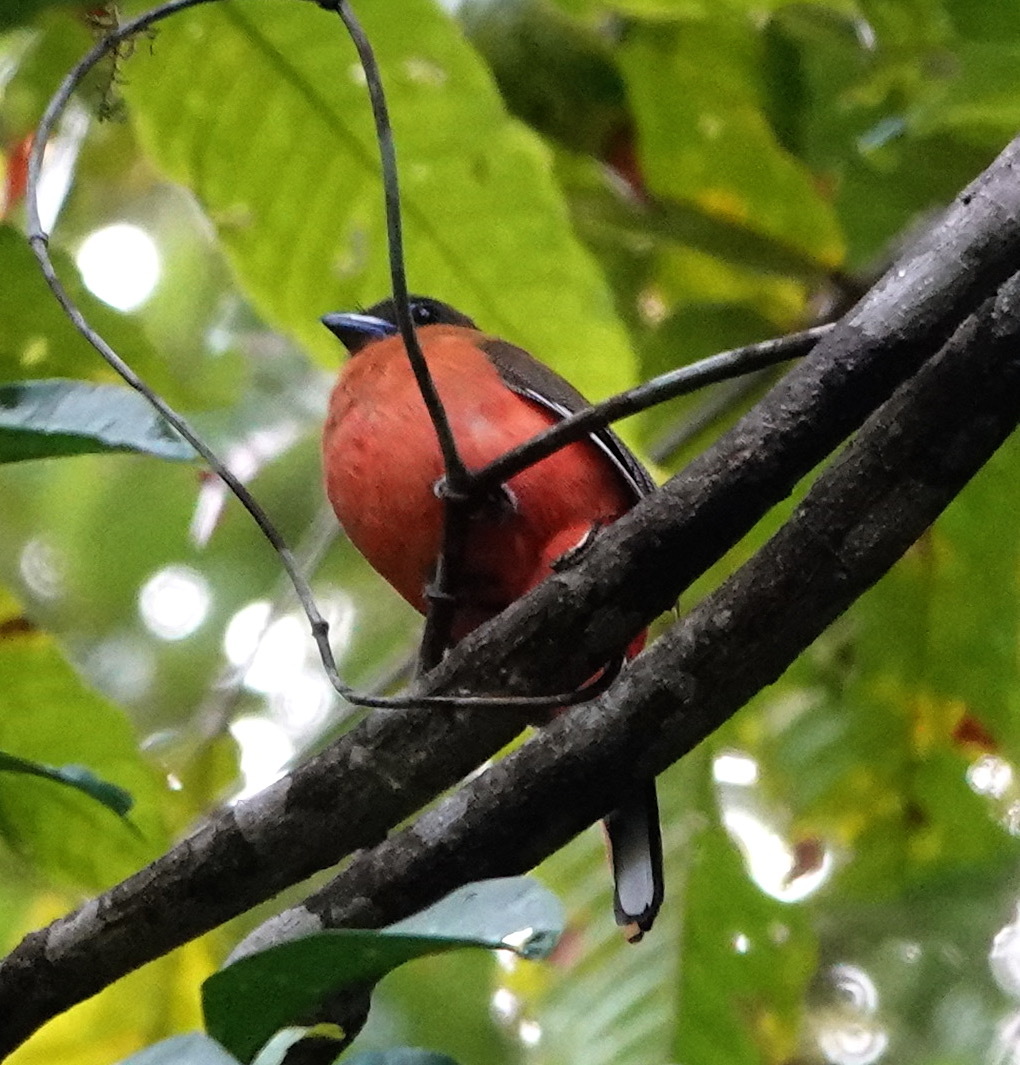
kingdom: Animalia
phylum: Chordata
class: Aves
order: Trogoniformes
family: Trogonidae
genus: Harpactes
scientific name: Harpactes duvaucelii
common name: Scarlet-rumped trogon
